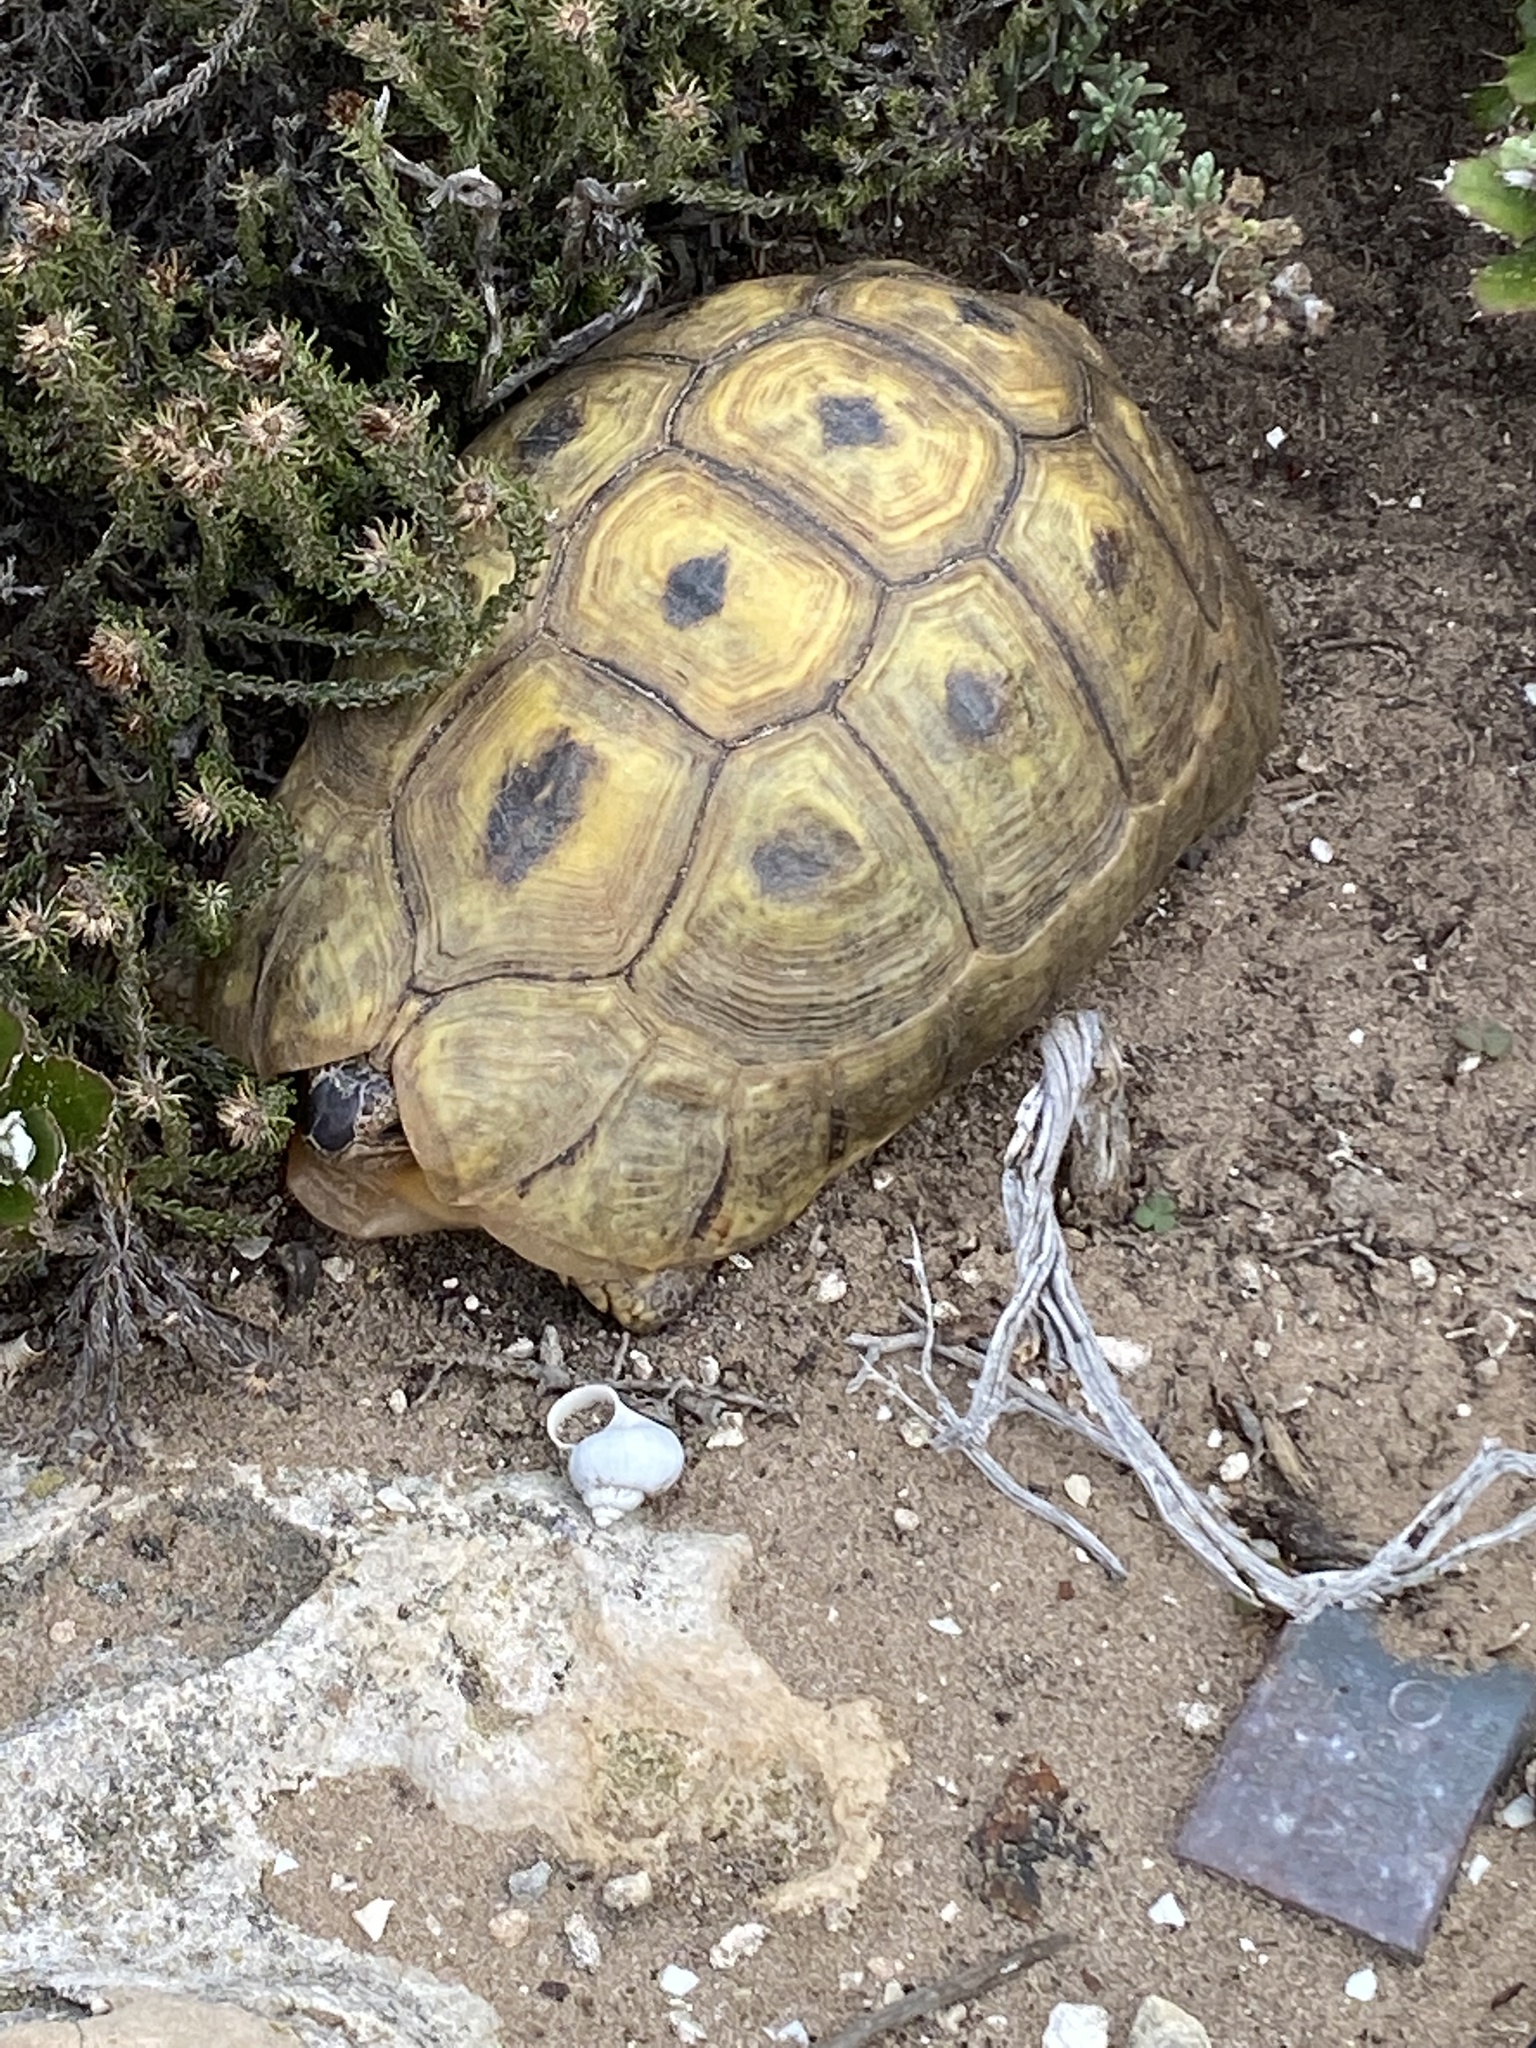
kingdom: Animalia
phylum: Chordata
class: Testudines
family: Testudinidae
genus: Chersina
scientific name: Chersina angulata
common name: South african bowsprit tortoise
